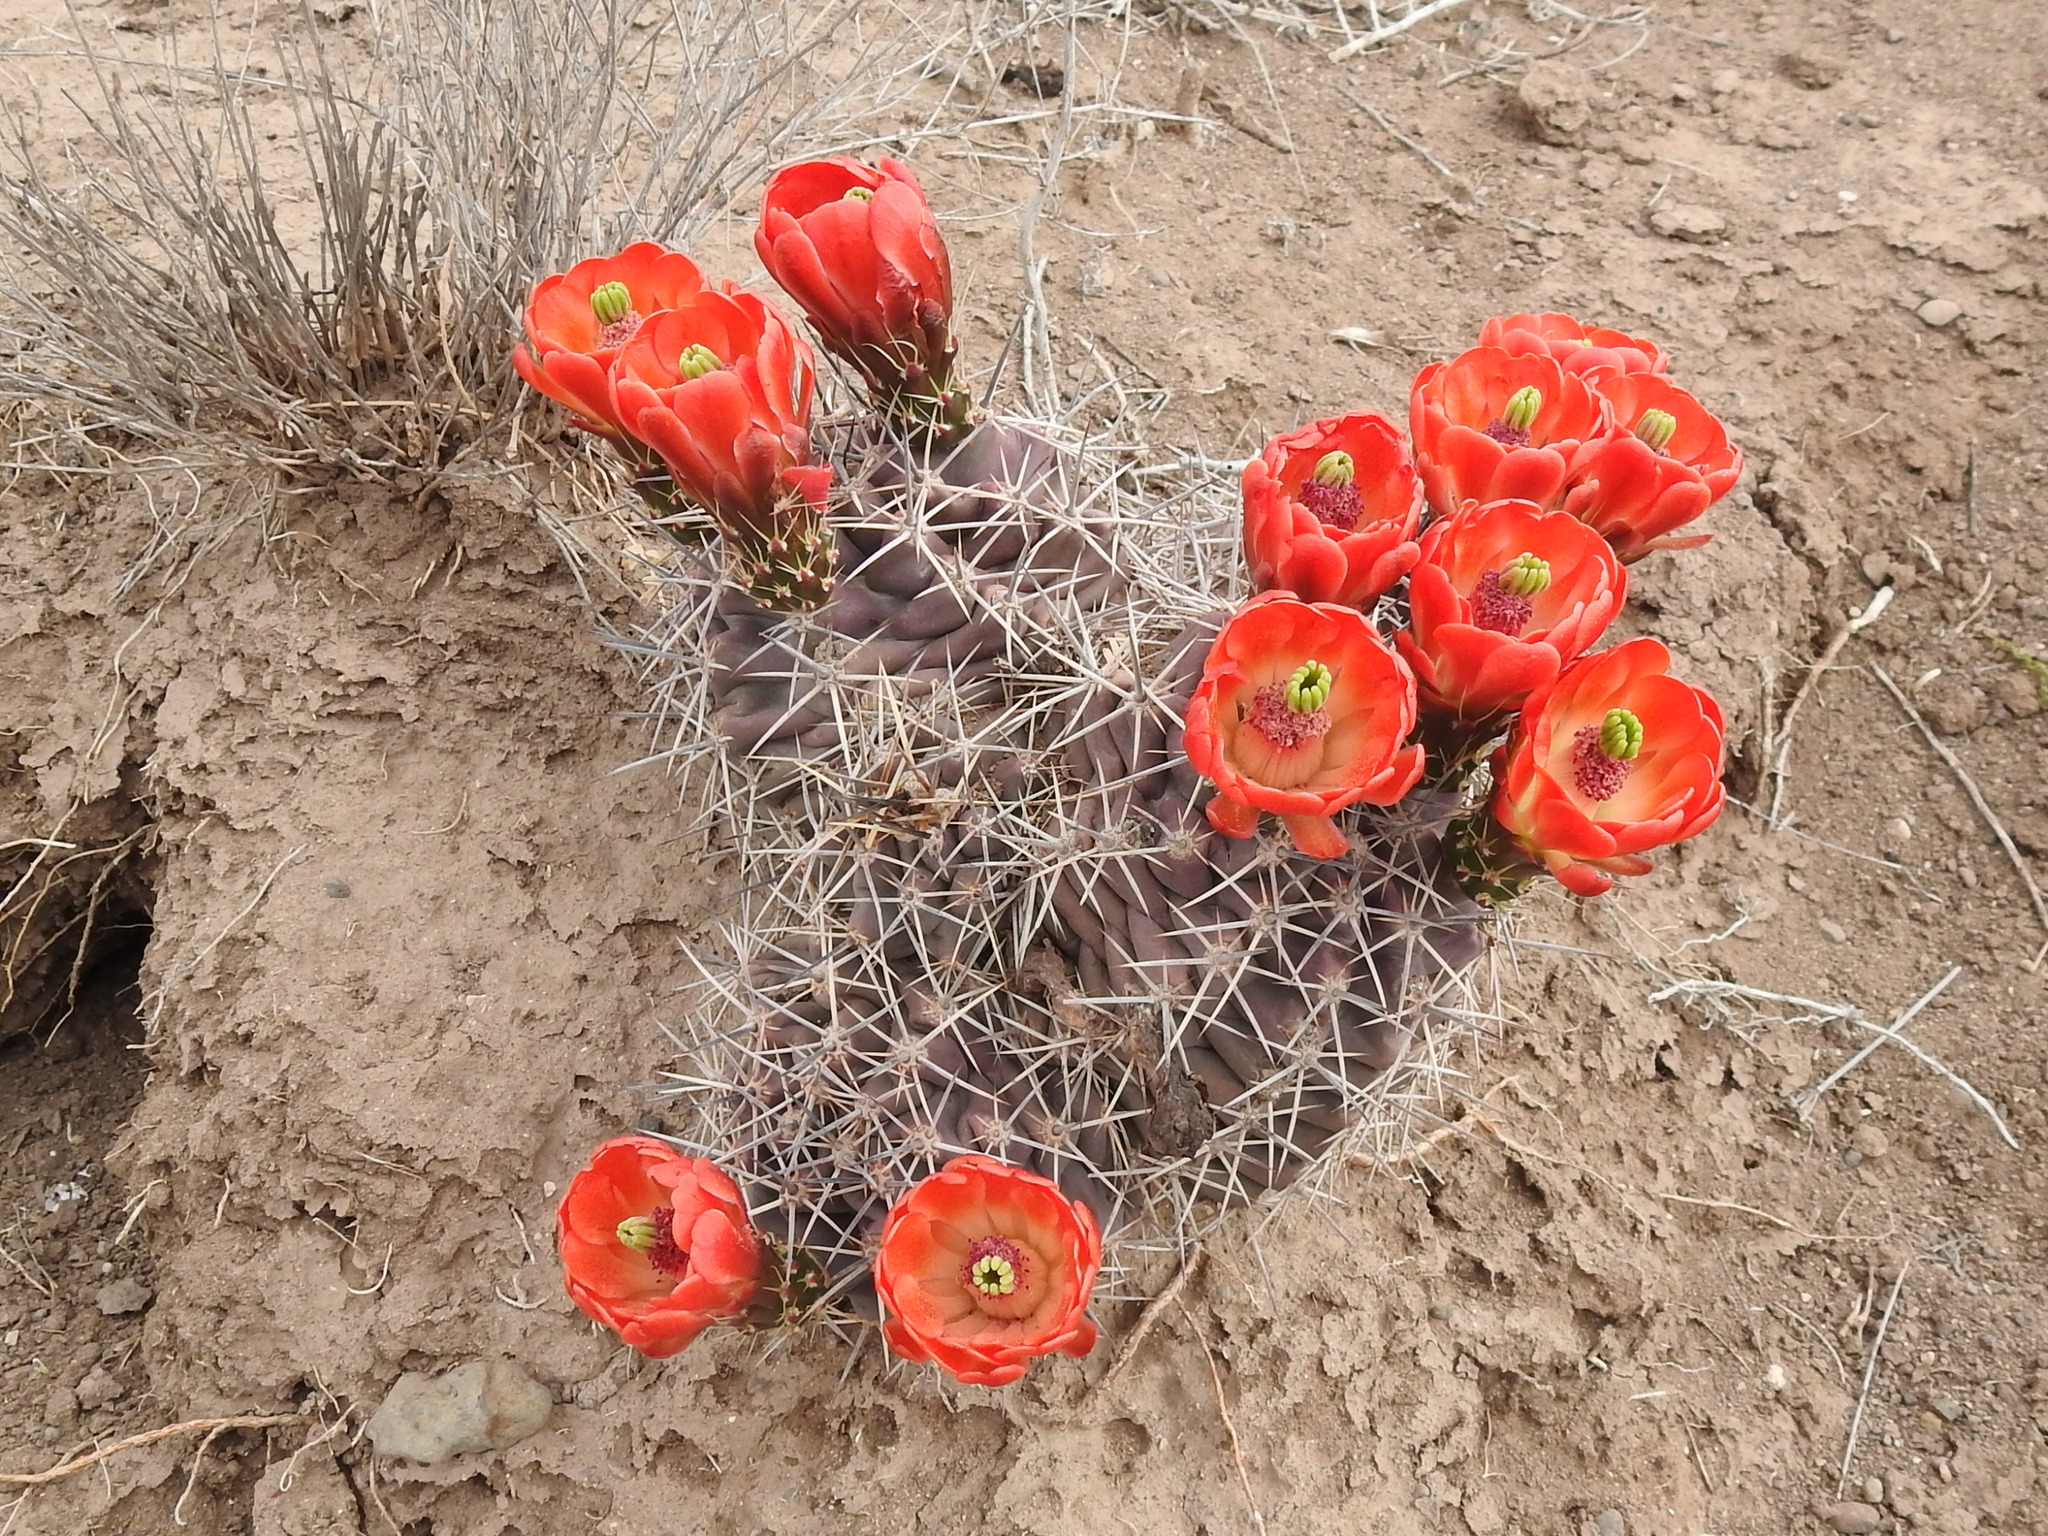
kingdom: Plantae
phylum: Tracheophyta
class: Magnoliopsida
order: Caryophyllales
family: Cactaceae
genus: Echinocereus
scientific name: Echinocereus coccineus
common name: Scarlet hedgehog cactus
